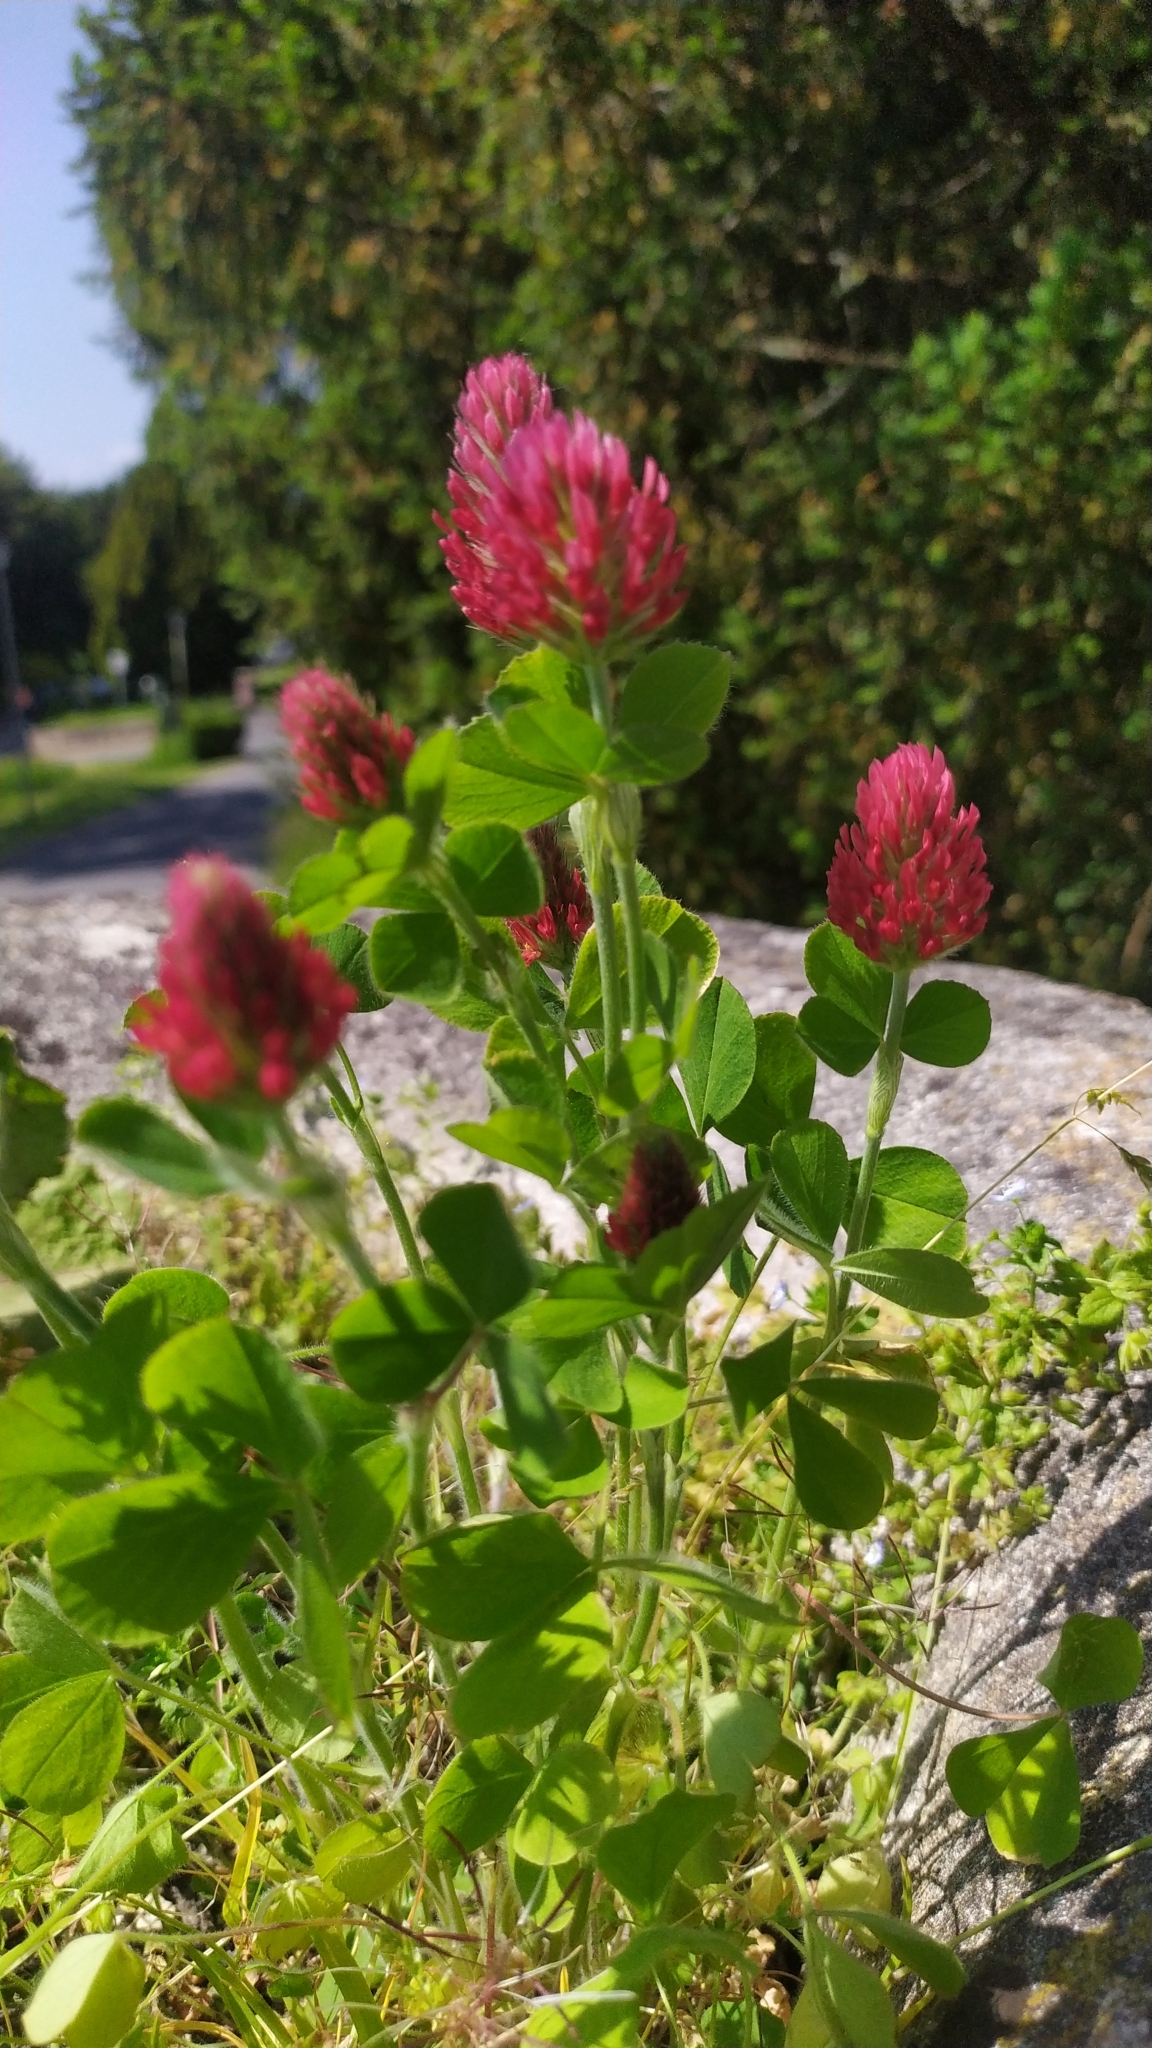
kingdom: Plantae
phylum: Tracheophyta
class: Magnoliopsida
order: Fabales
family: Fabaceae
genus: Trifolium
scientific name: Trifolium incarnatum
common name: Crimson clover
